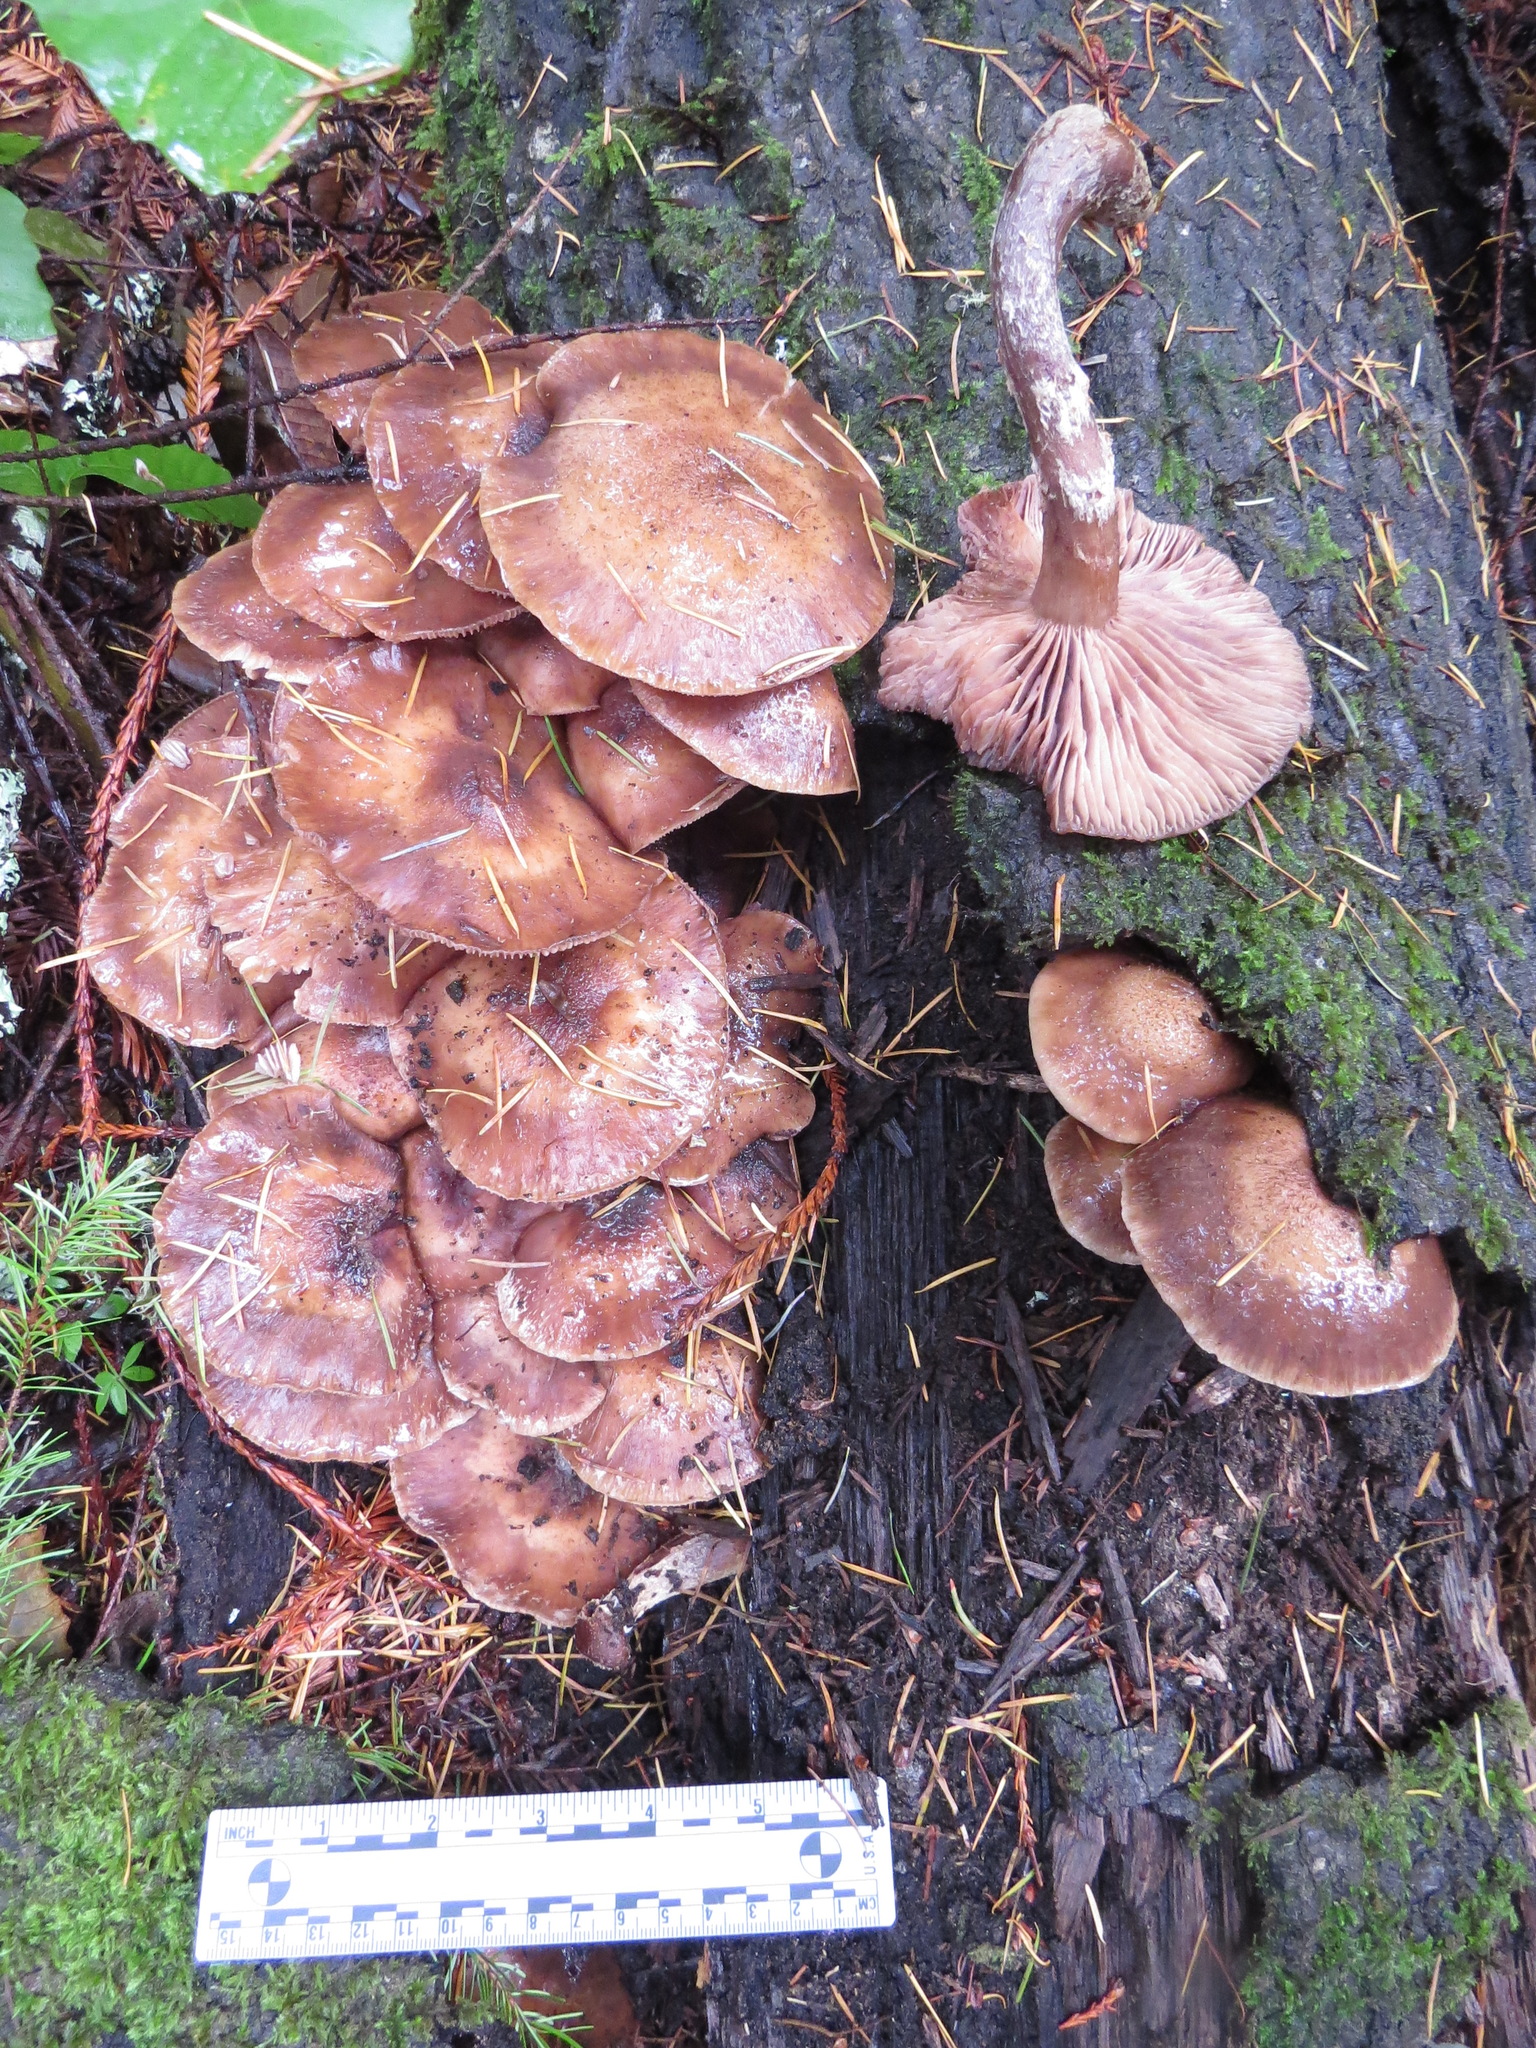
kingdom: Fungi
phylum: Basidiomycota
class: Agaricomycetes
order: Agaricales
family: Physalacriaceae
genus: Armillaria
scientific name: Armillaria sinapina
